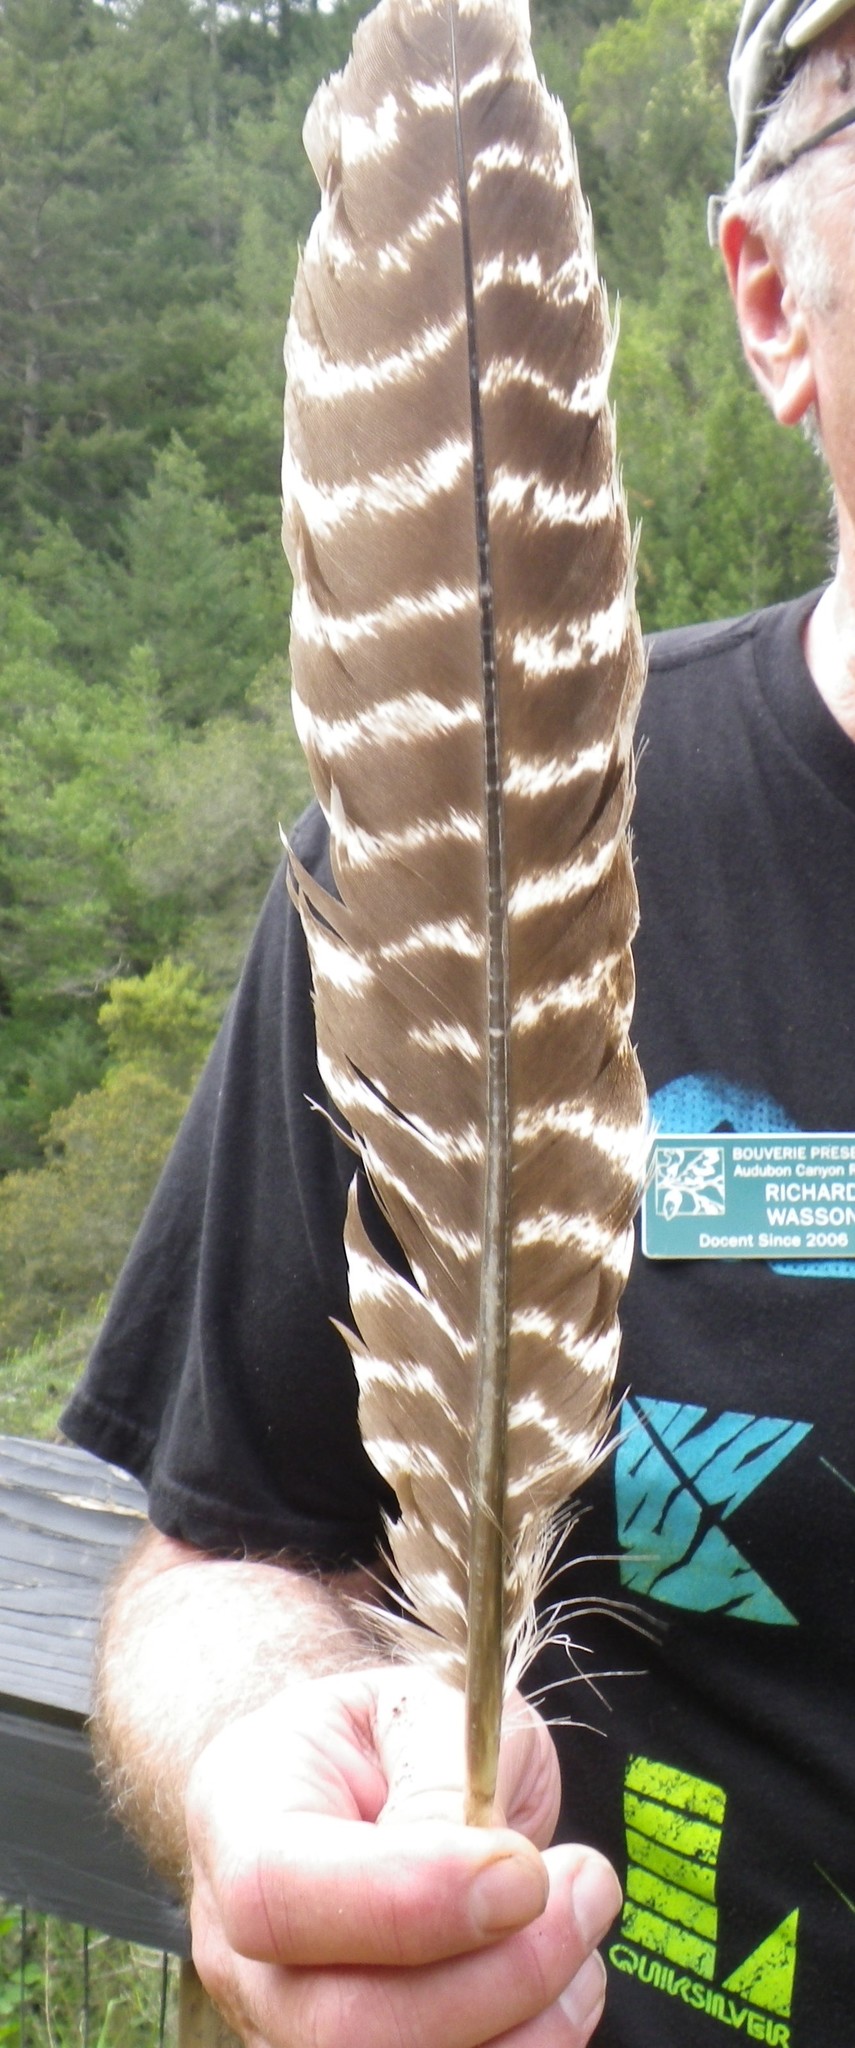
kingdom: Animalia
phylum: Chordata
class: Aves
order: Galliformes
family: Phasianidae
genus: Meleagris
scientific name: Meleagris gallopavo
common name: Wild turkey
